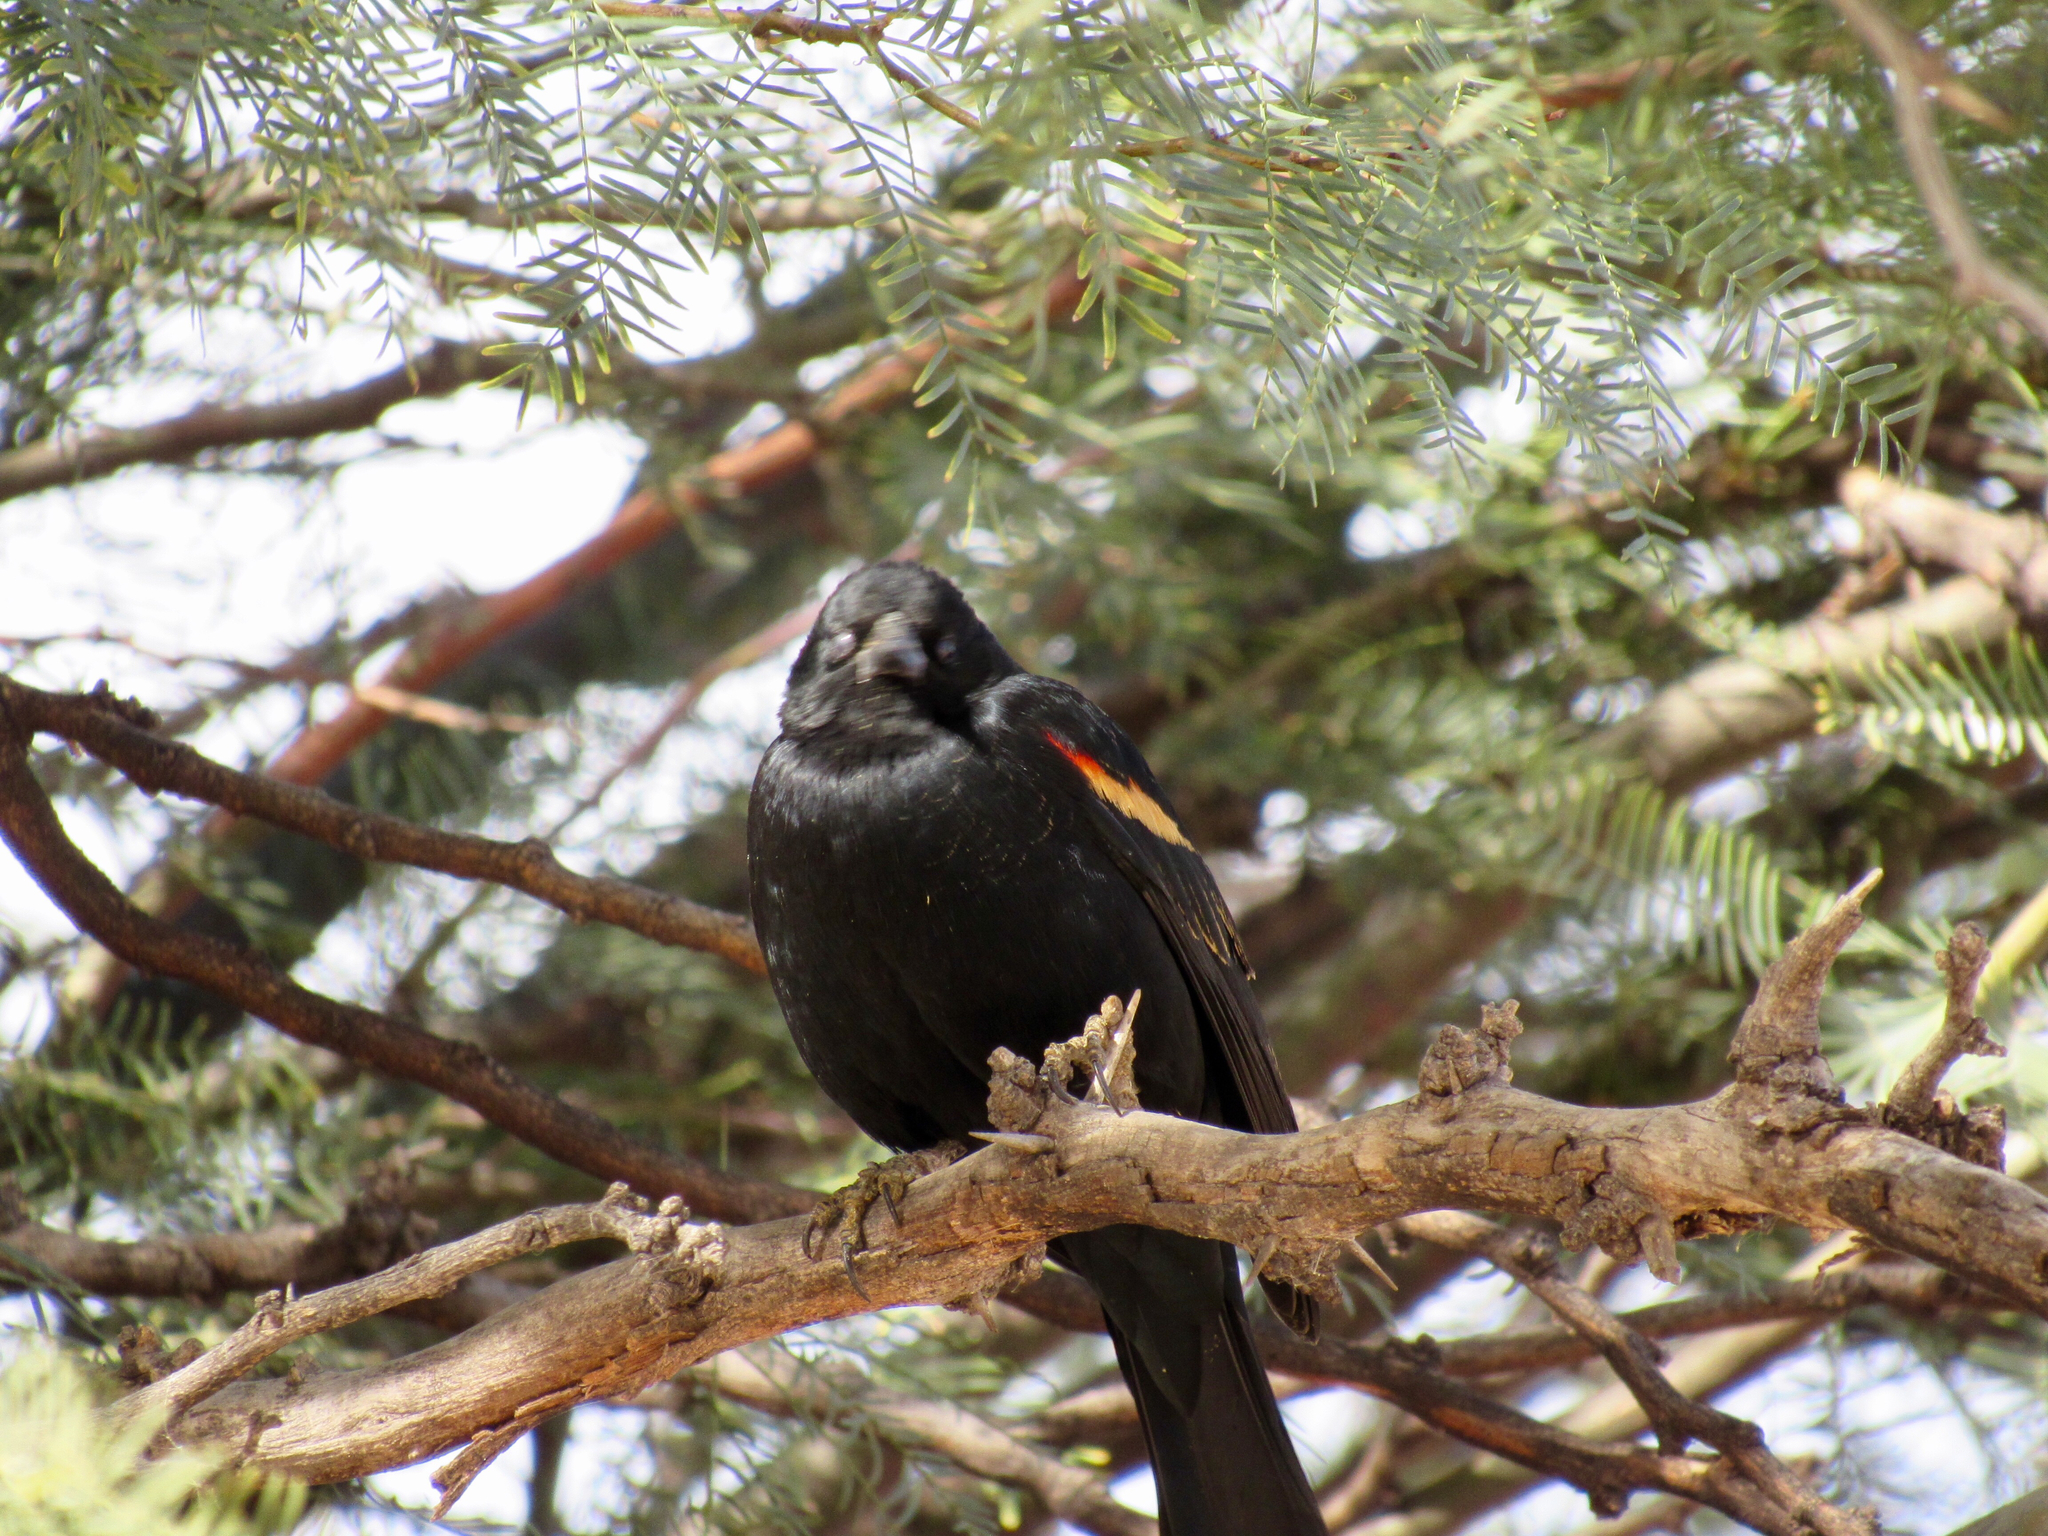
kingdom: Animalia
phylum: Chordata
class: Aves
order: Passeriformes
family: Icteridae
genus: Agelaius
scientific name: Agelaius phoeniceus
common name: Red-winged blackbird
